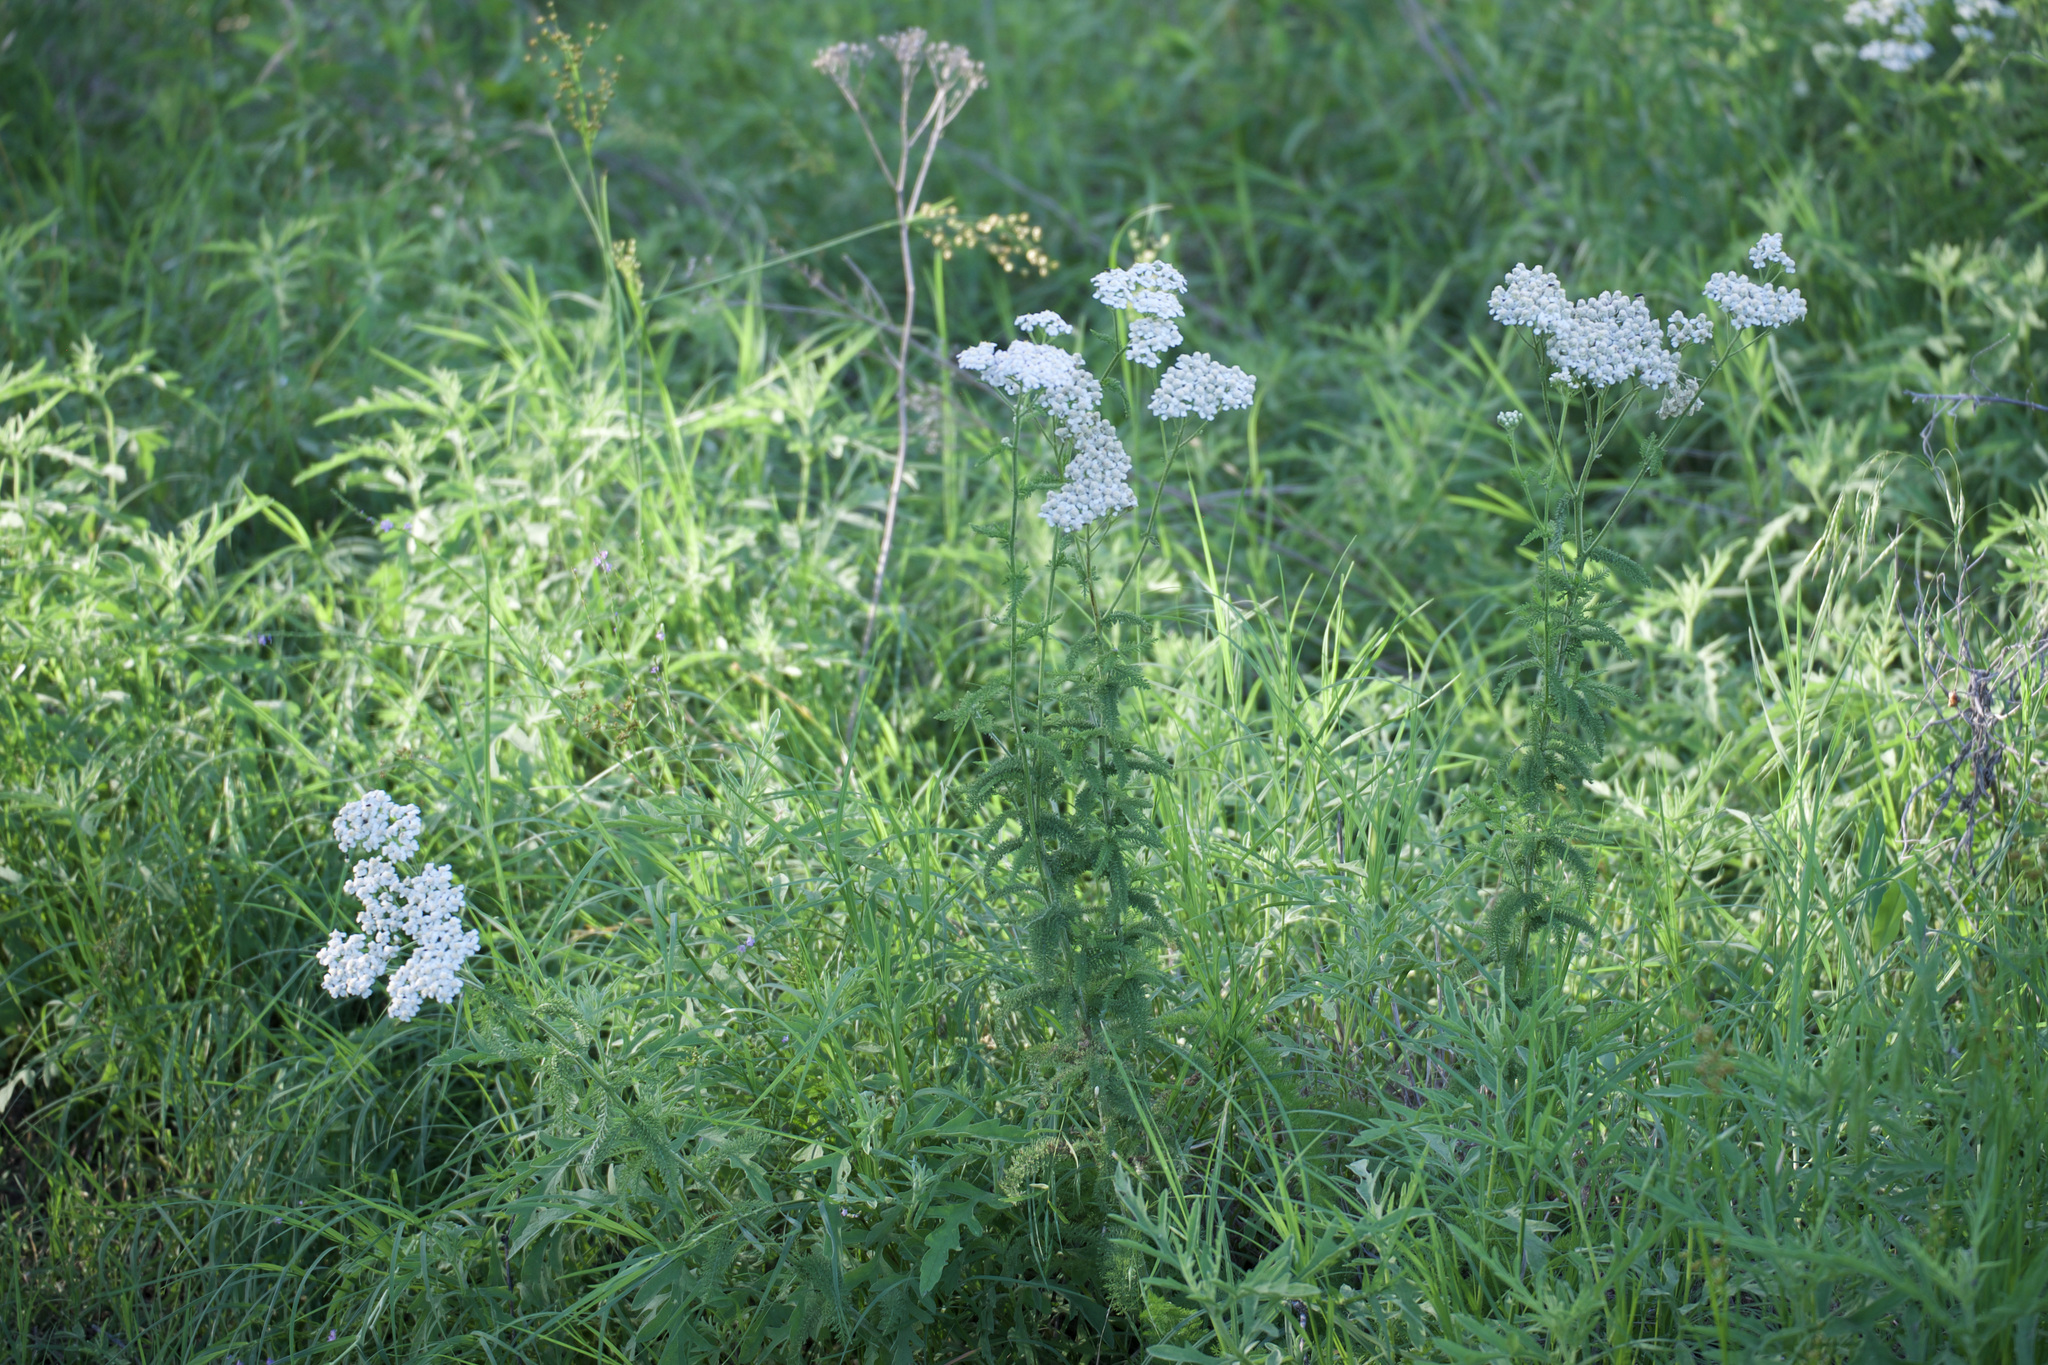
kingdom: Plantae
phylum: Tracheophyta
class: Magnoliopsida
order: Asterales
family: Asteraceae
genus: Achillea
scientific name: Achillea millefolium
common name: Yarrow
